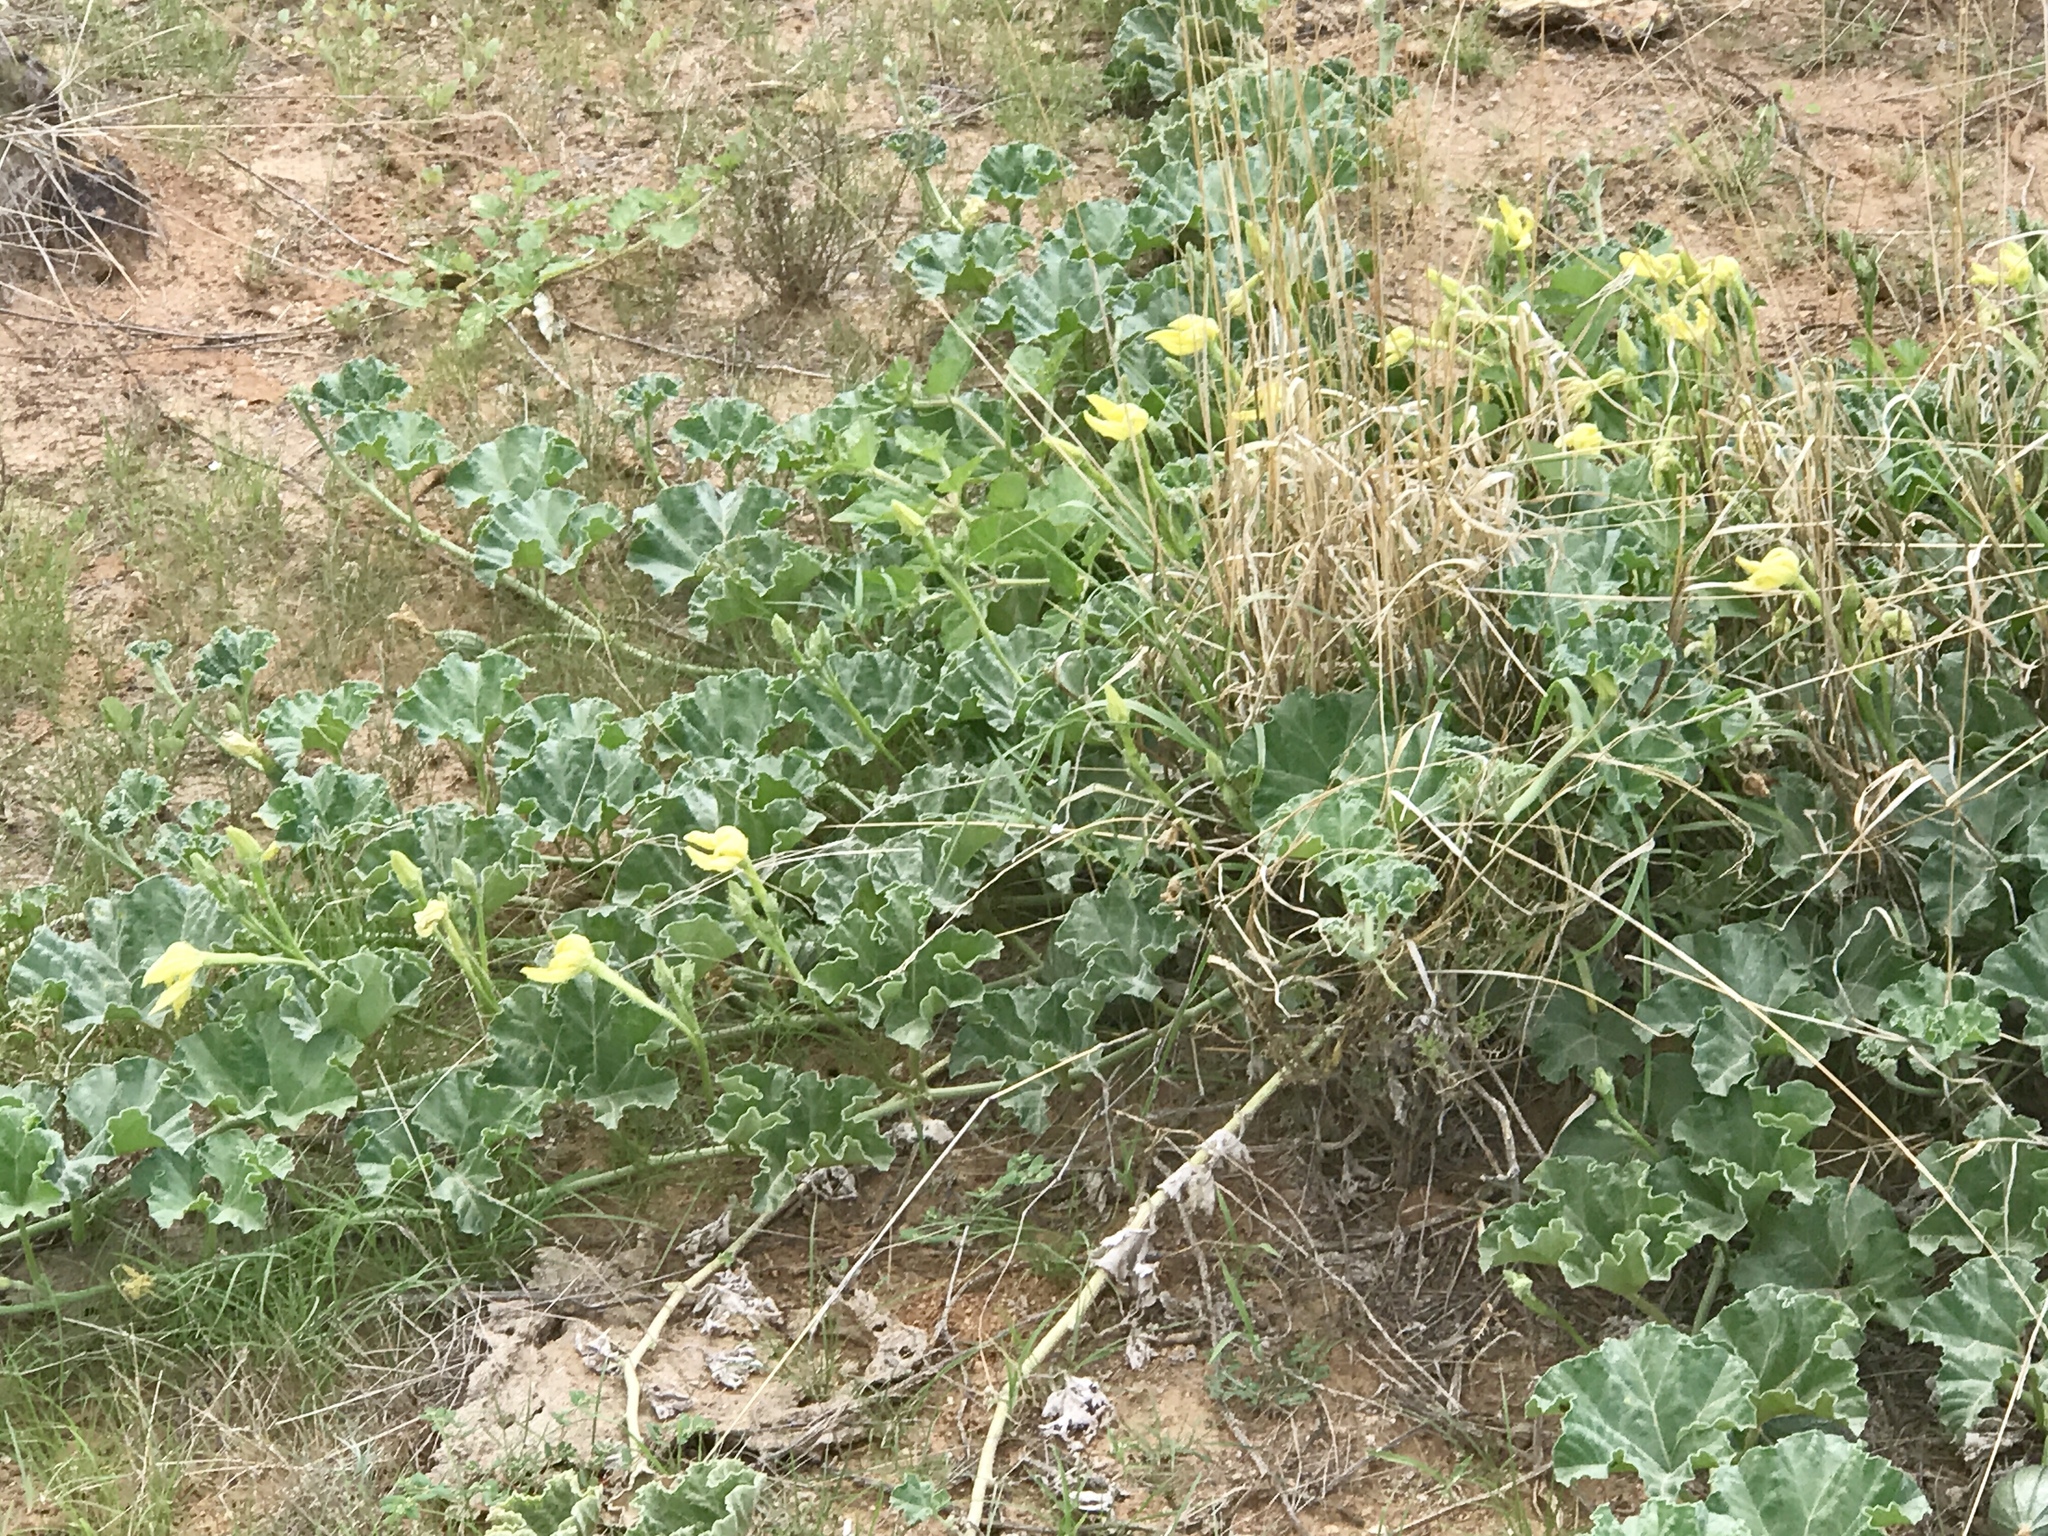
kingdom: Plantae
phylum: Tracheophyta
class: Magnoliopsida
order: Cucurbitales
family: Cucurbitaceae
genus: Apodanthera
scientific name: Apodanthera undulata
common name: Melon-loco
